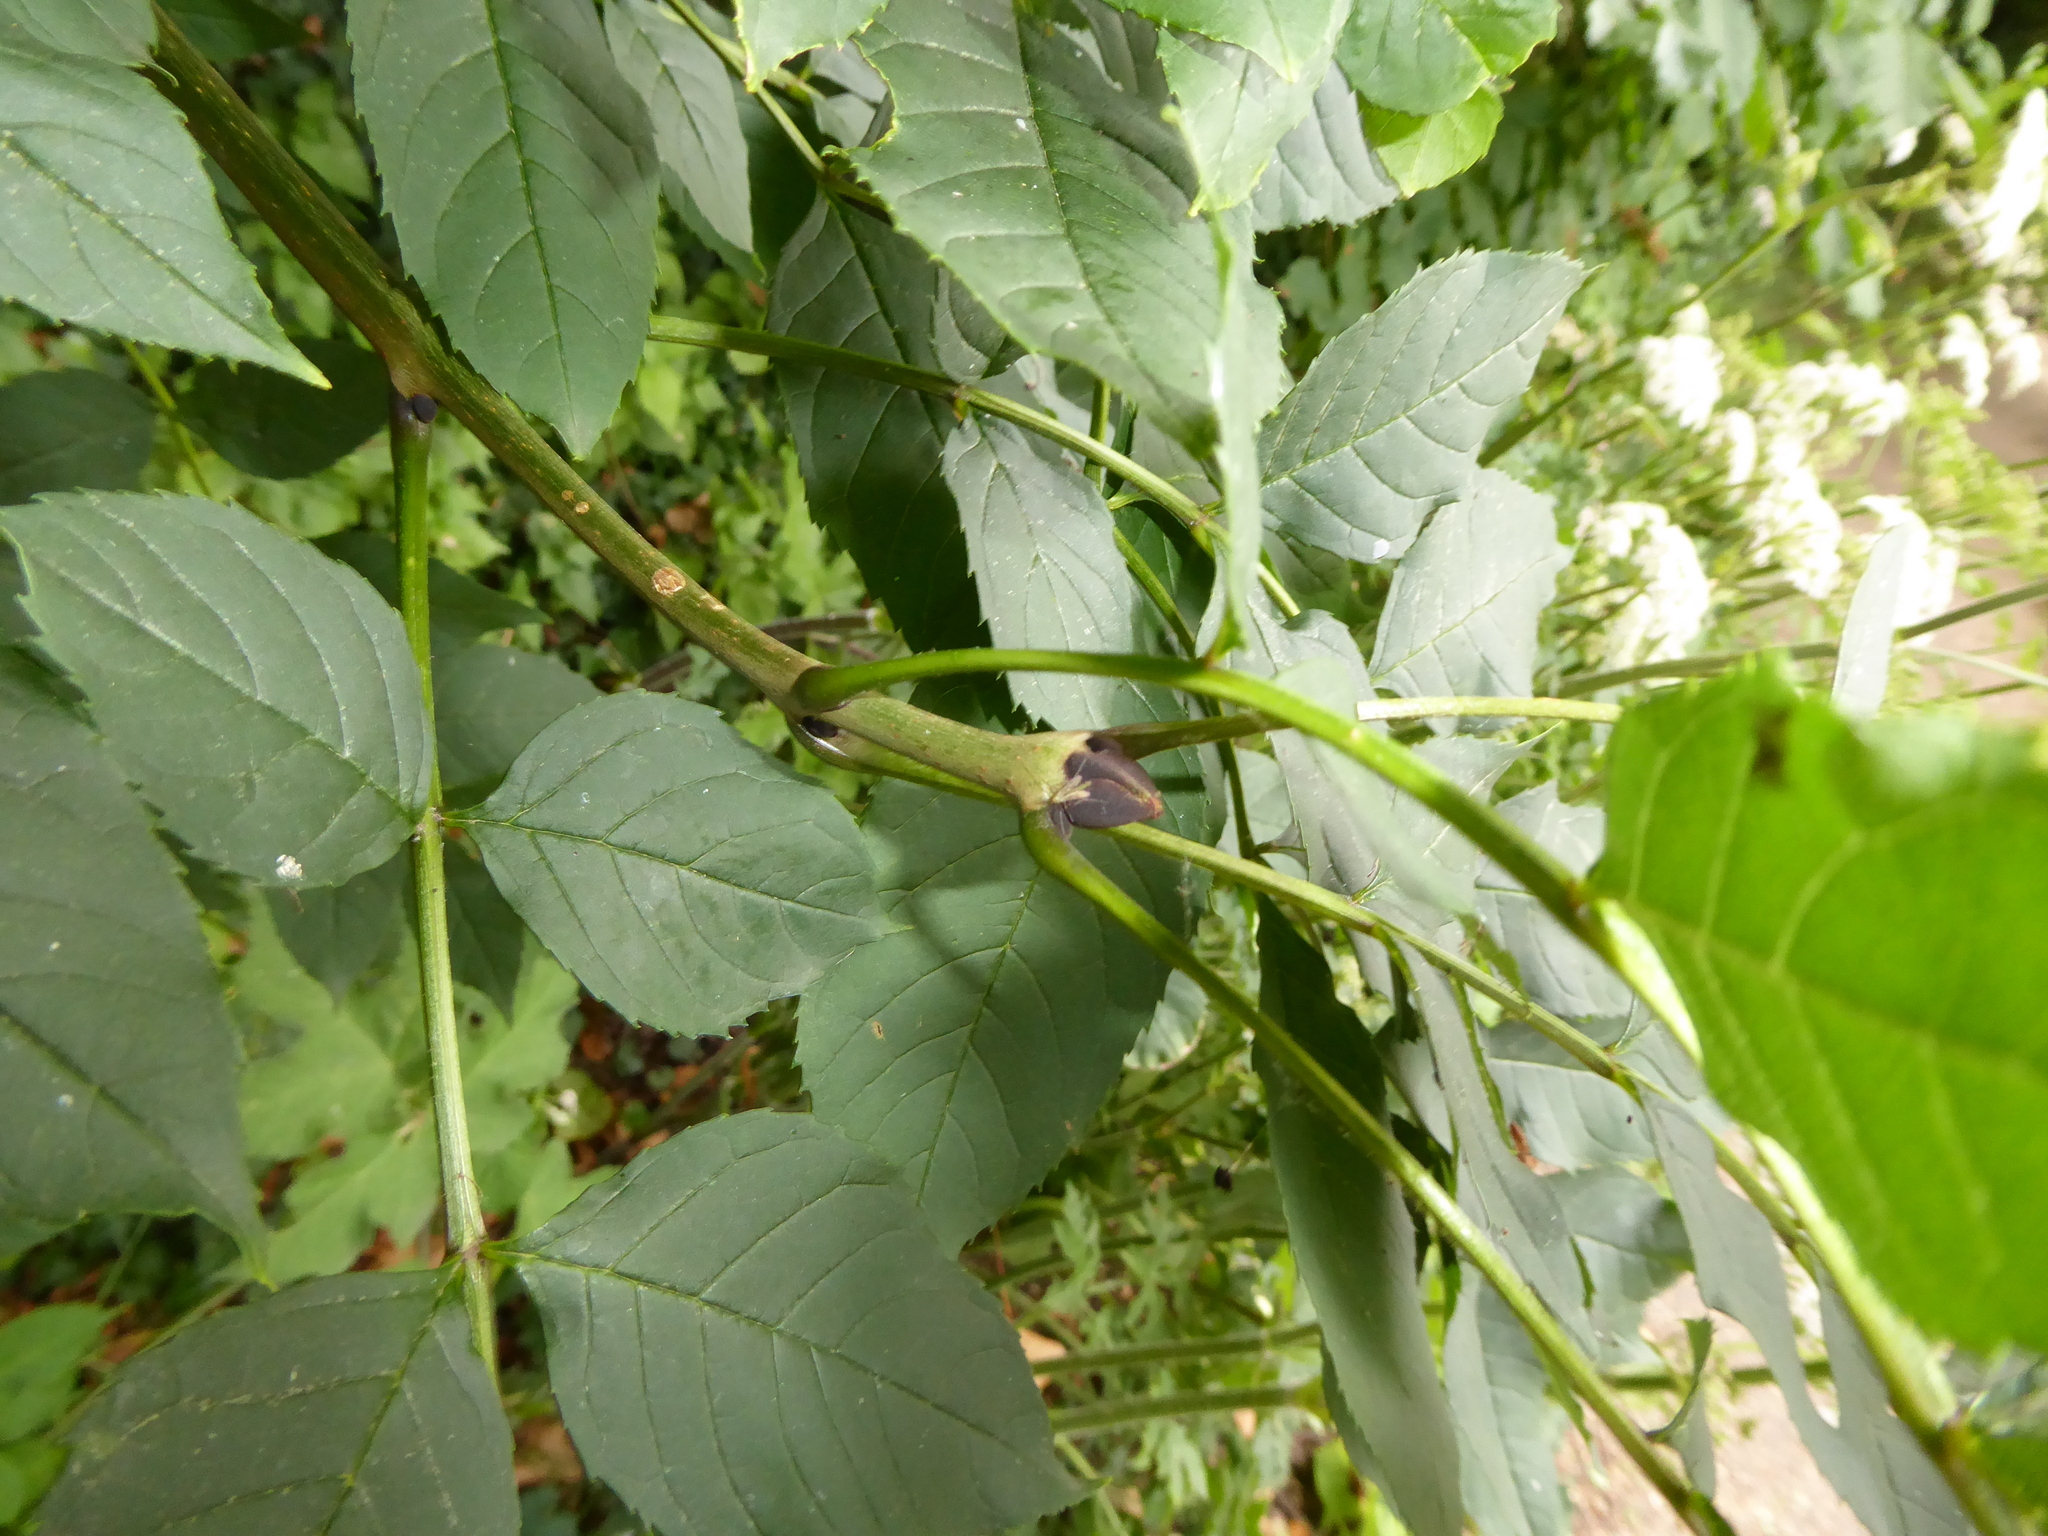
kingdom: Plantae
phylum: Tracheophyta
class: Magnoliopsida
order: Lamiales
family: Oleaceae
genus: Fraxinus
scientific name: Fraxinus excelsior
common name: European ash
